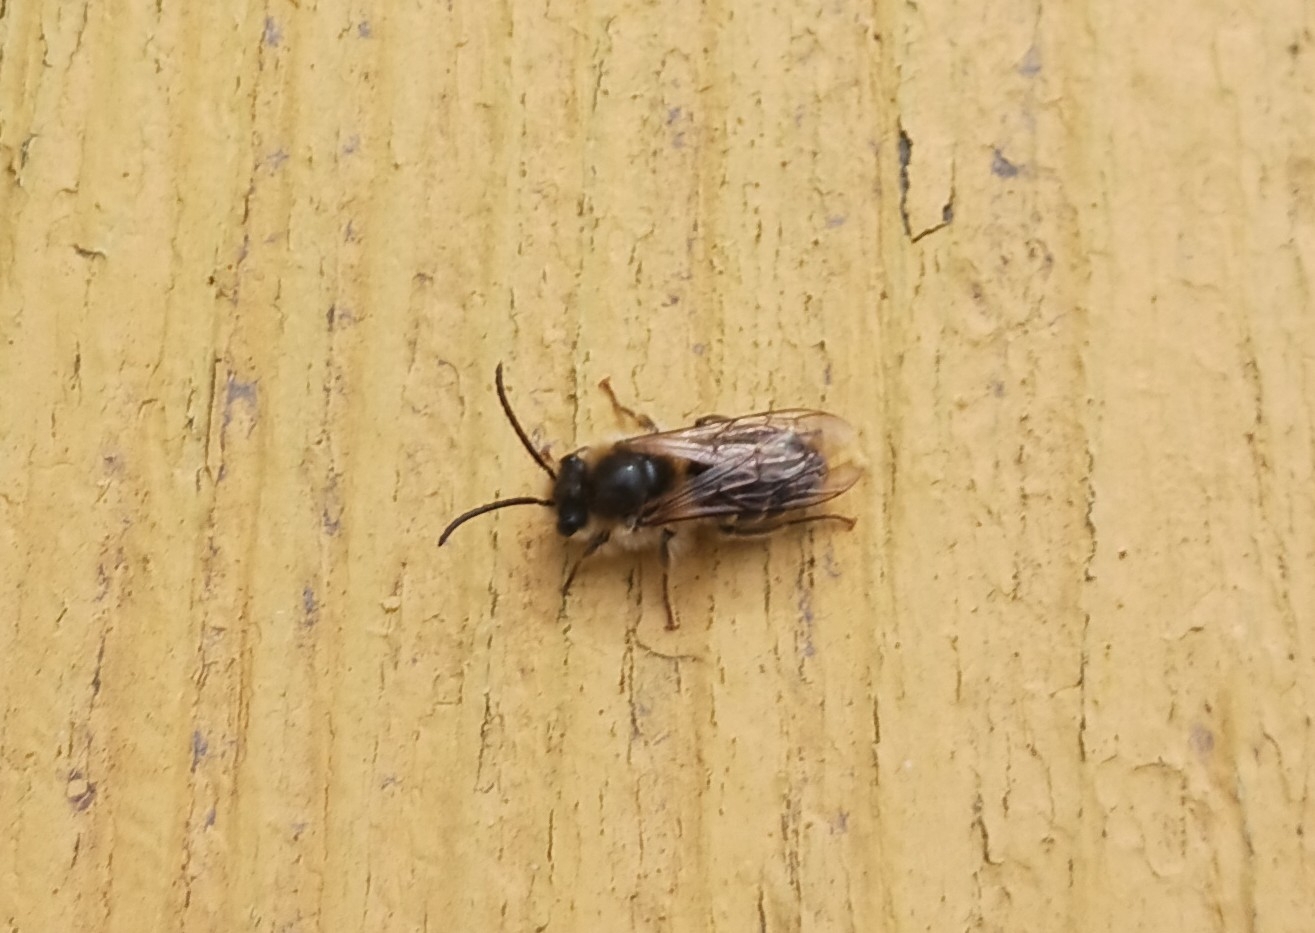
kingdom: Animalia
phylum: Arthropoda
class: Insecta
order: Hymenoptera
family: Colletidae
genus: Colletes
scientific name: Colletes inaequalis
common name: Unequal cellophane bee
